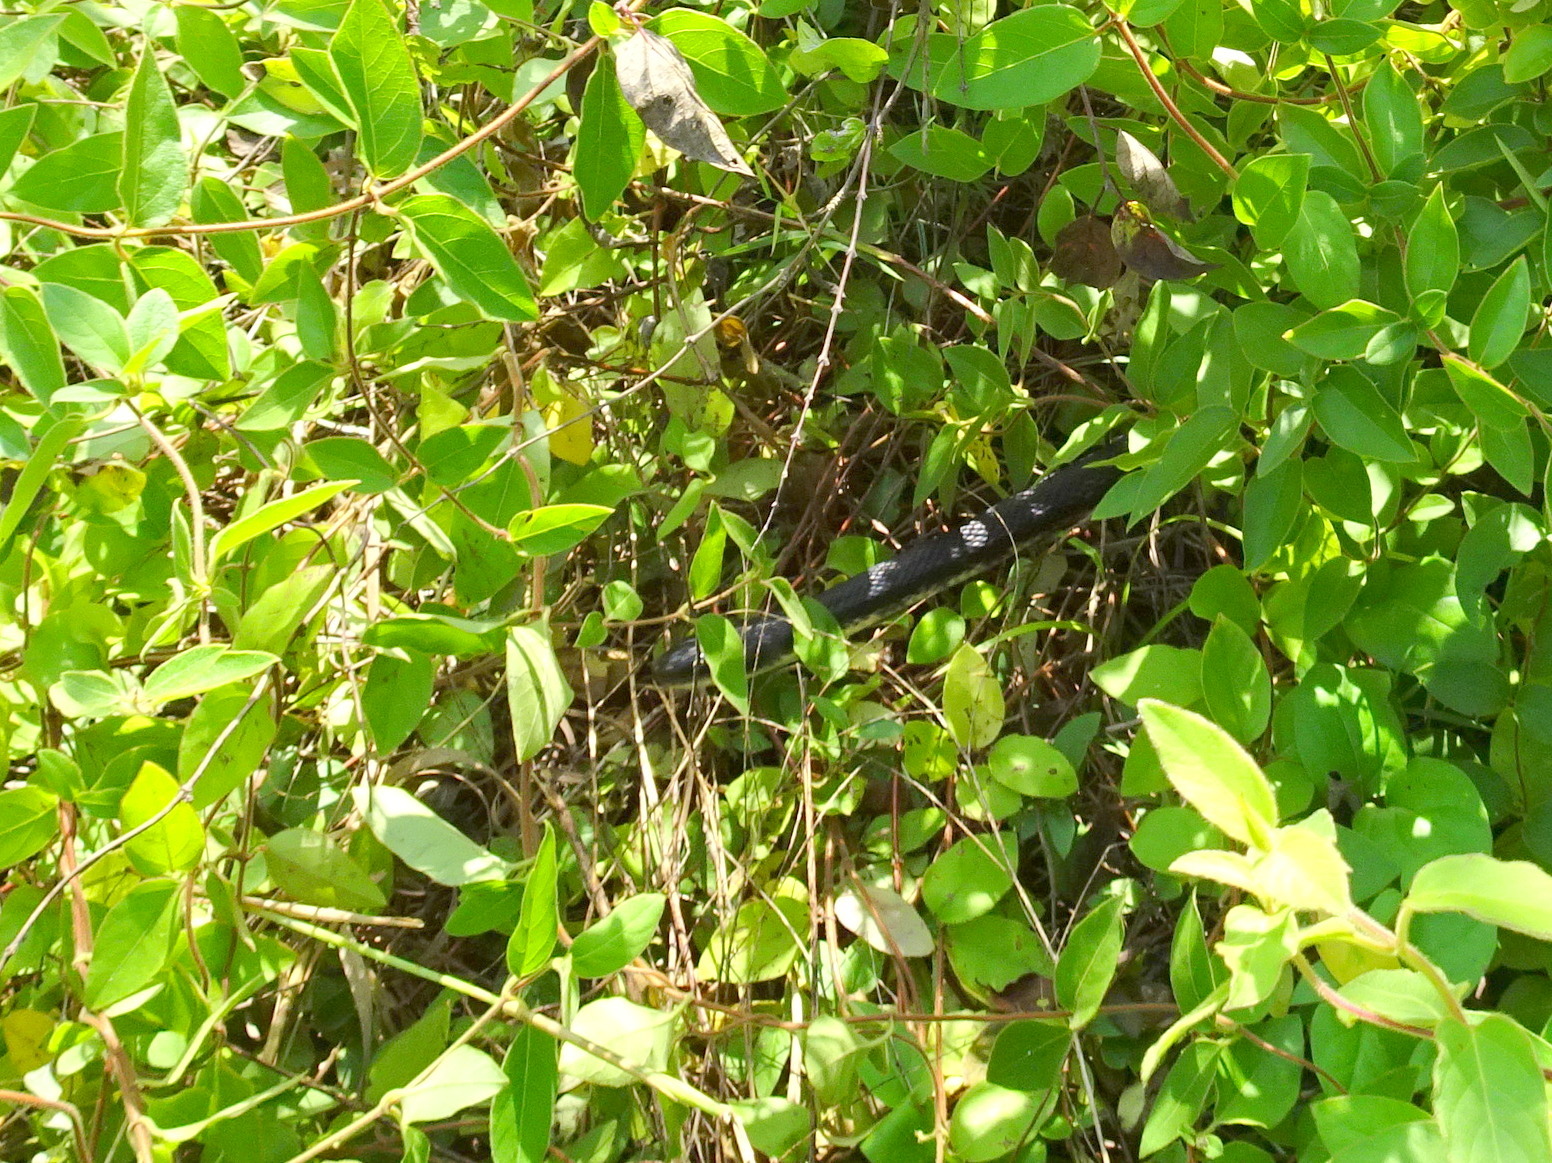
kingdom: Animalia
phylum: Chordata
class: Squamata
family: Colubridae
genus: Pantherophis
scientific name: Pantherophis obsoletus
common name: Black rat snake
